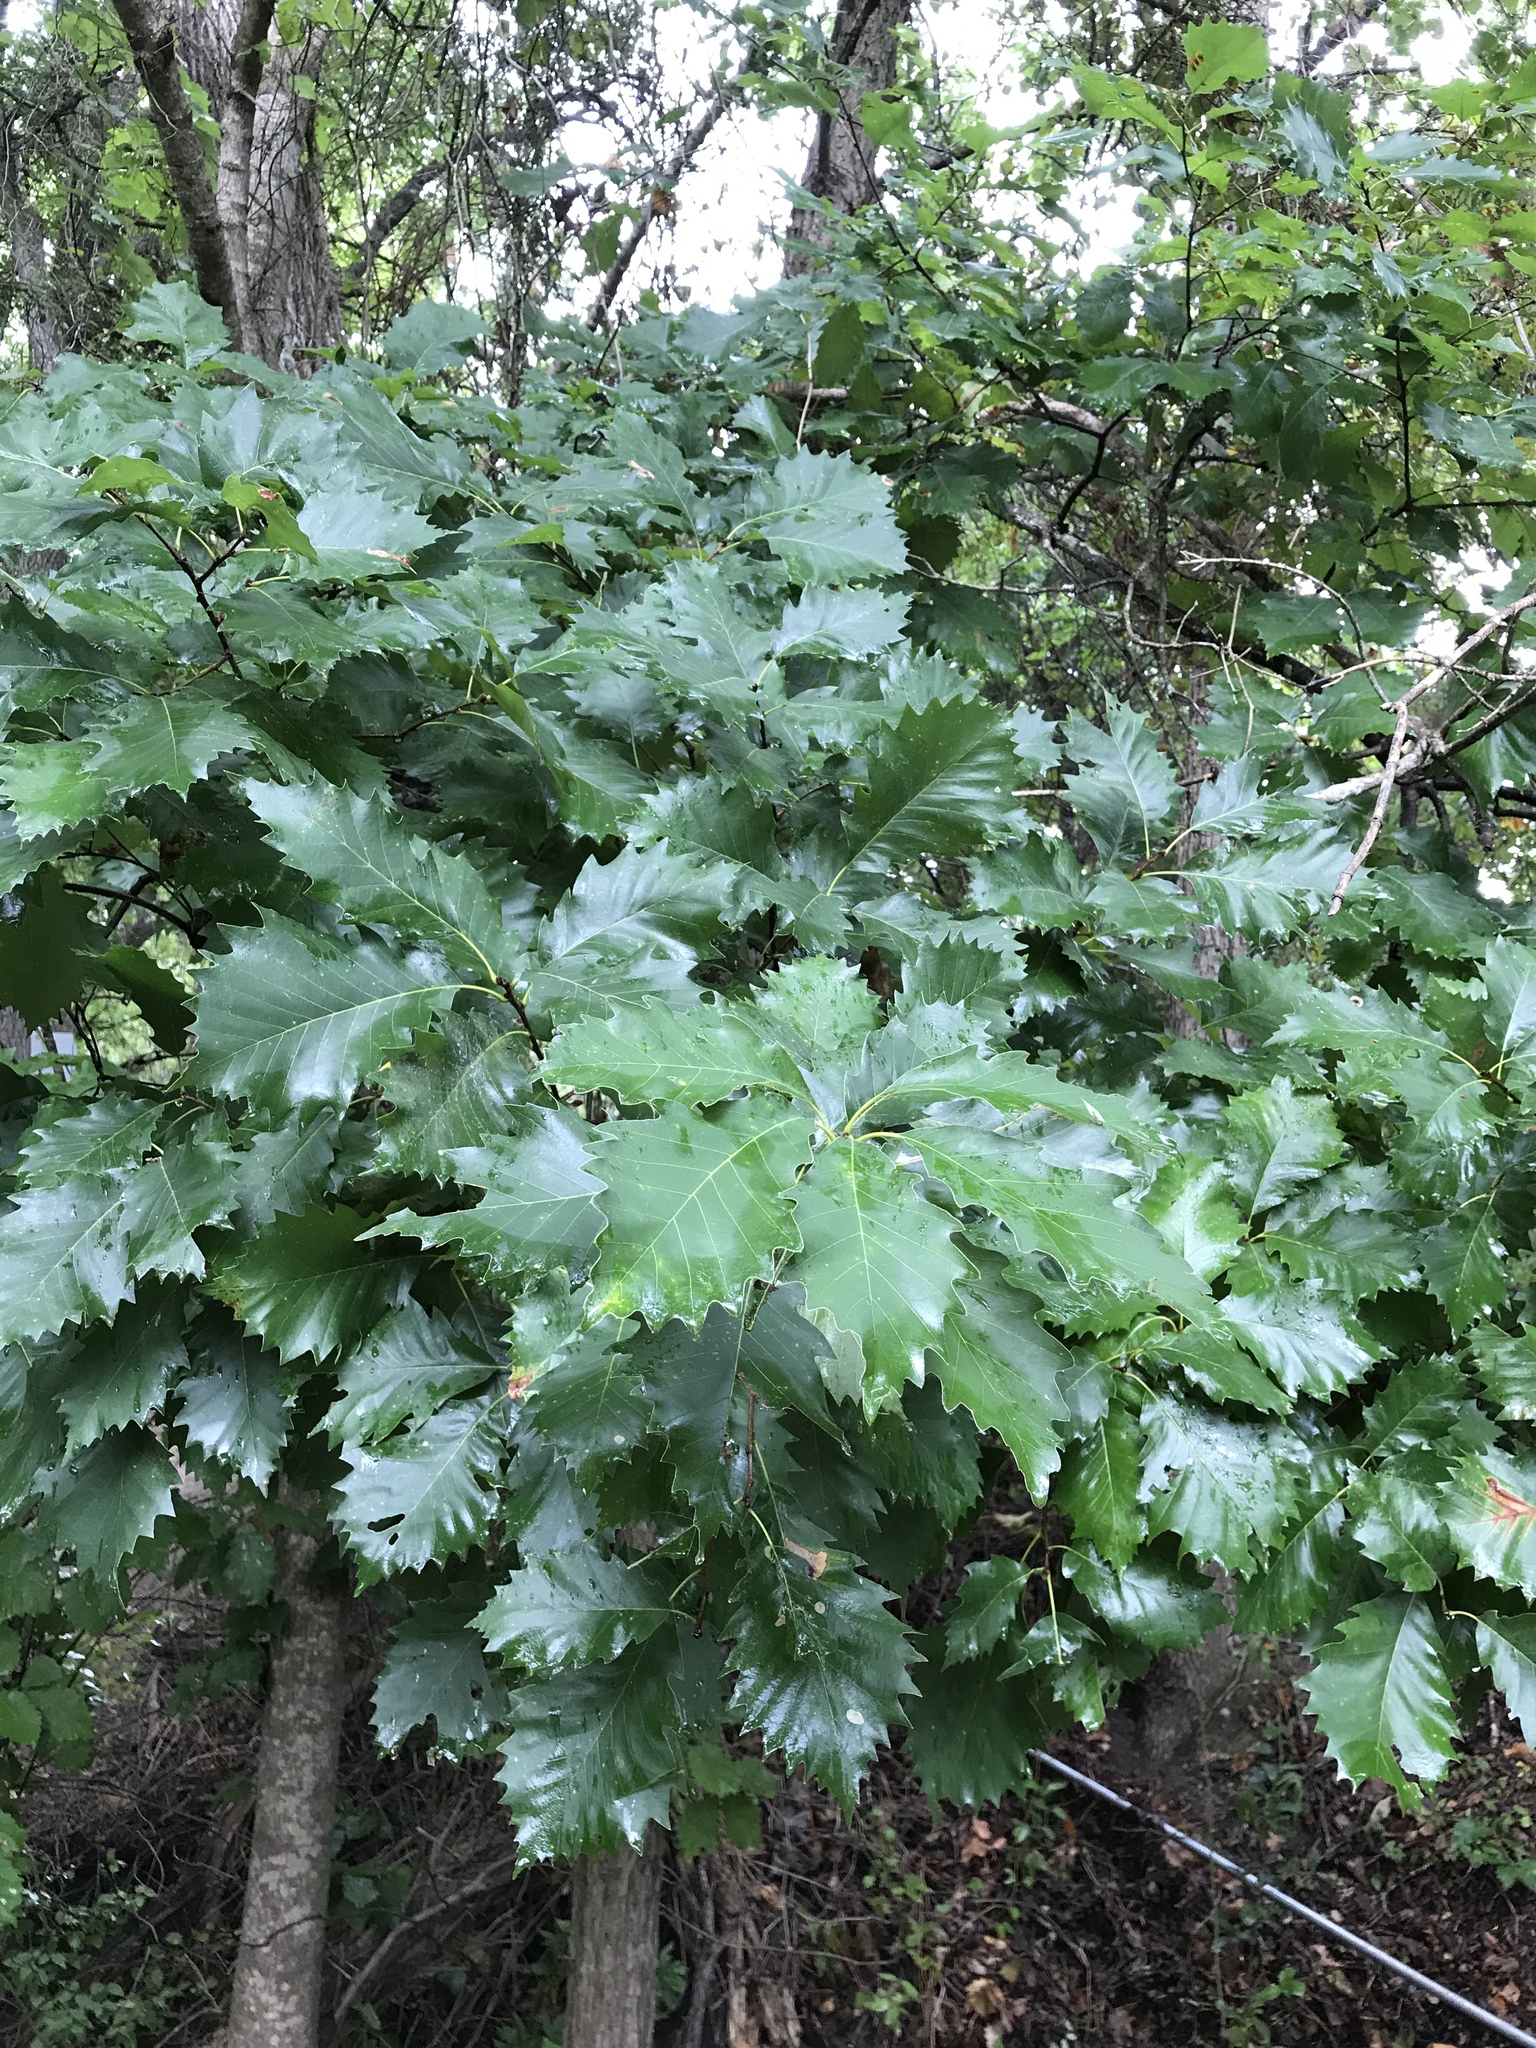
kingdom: Plantae
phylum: Tracheophyta
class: Magnoliopsida
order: Fagales
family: Fagaceae
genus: Quercus
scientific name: Quercus muehlenbergii
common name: Chinkapin oak
